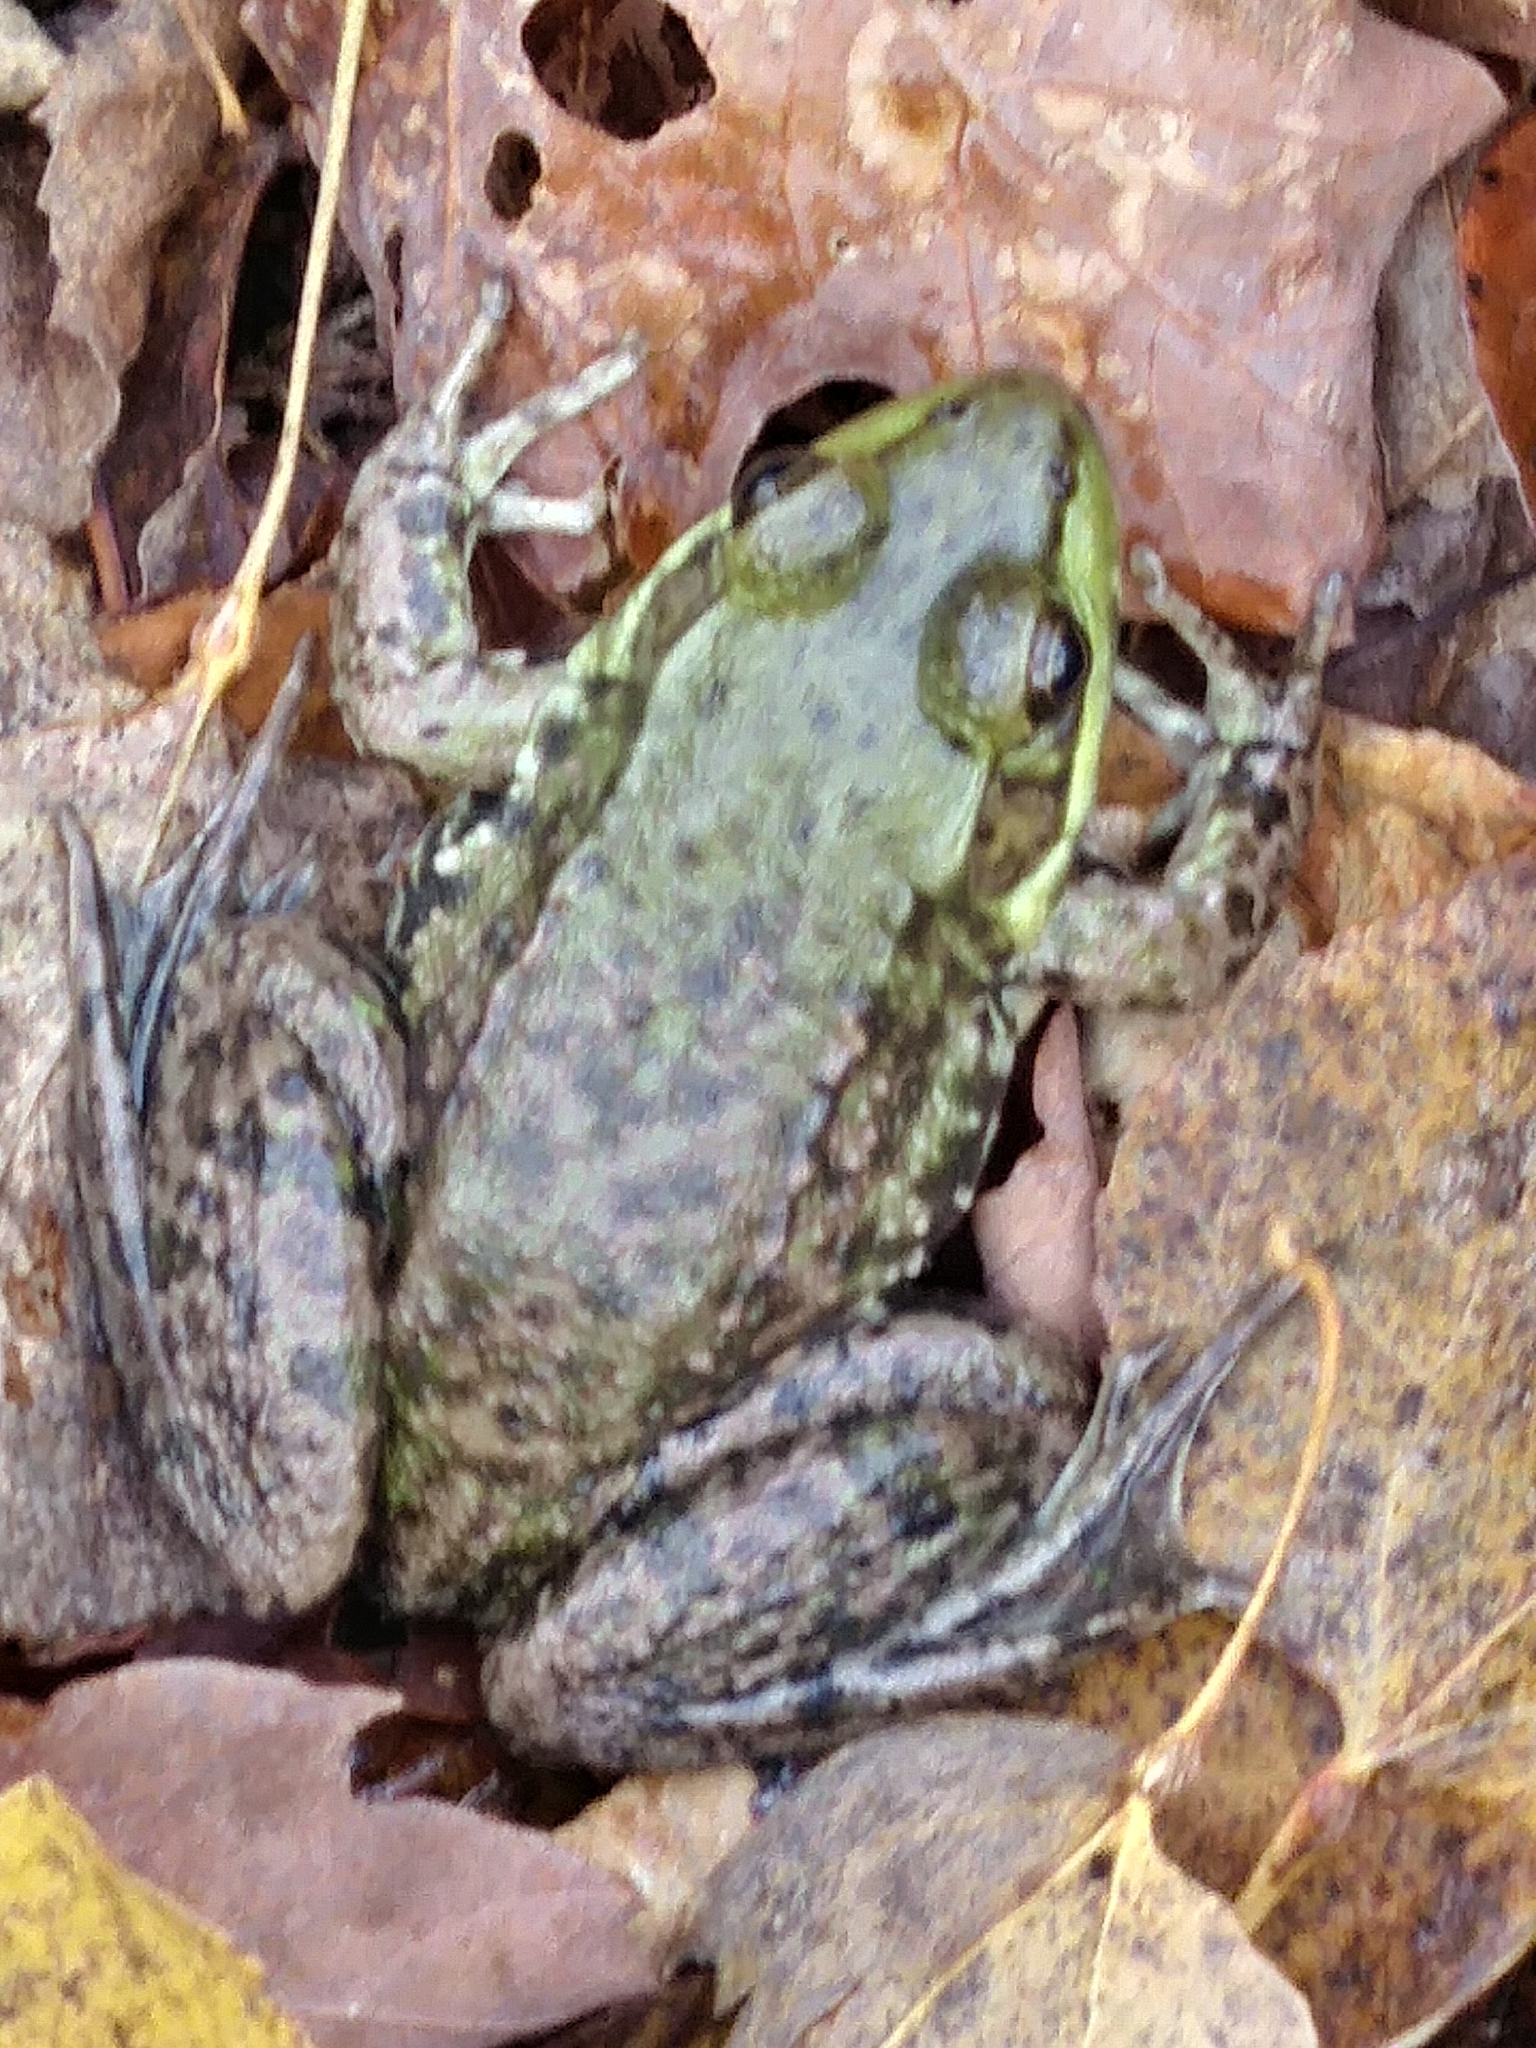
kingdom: Animalia
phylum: Chordata
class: Amphibia
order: Anura
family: Ranidae
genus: Lithobates
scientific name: Lithobates clamitans
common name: Green frog
